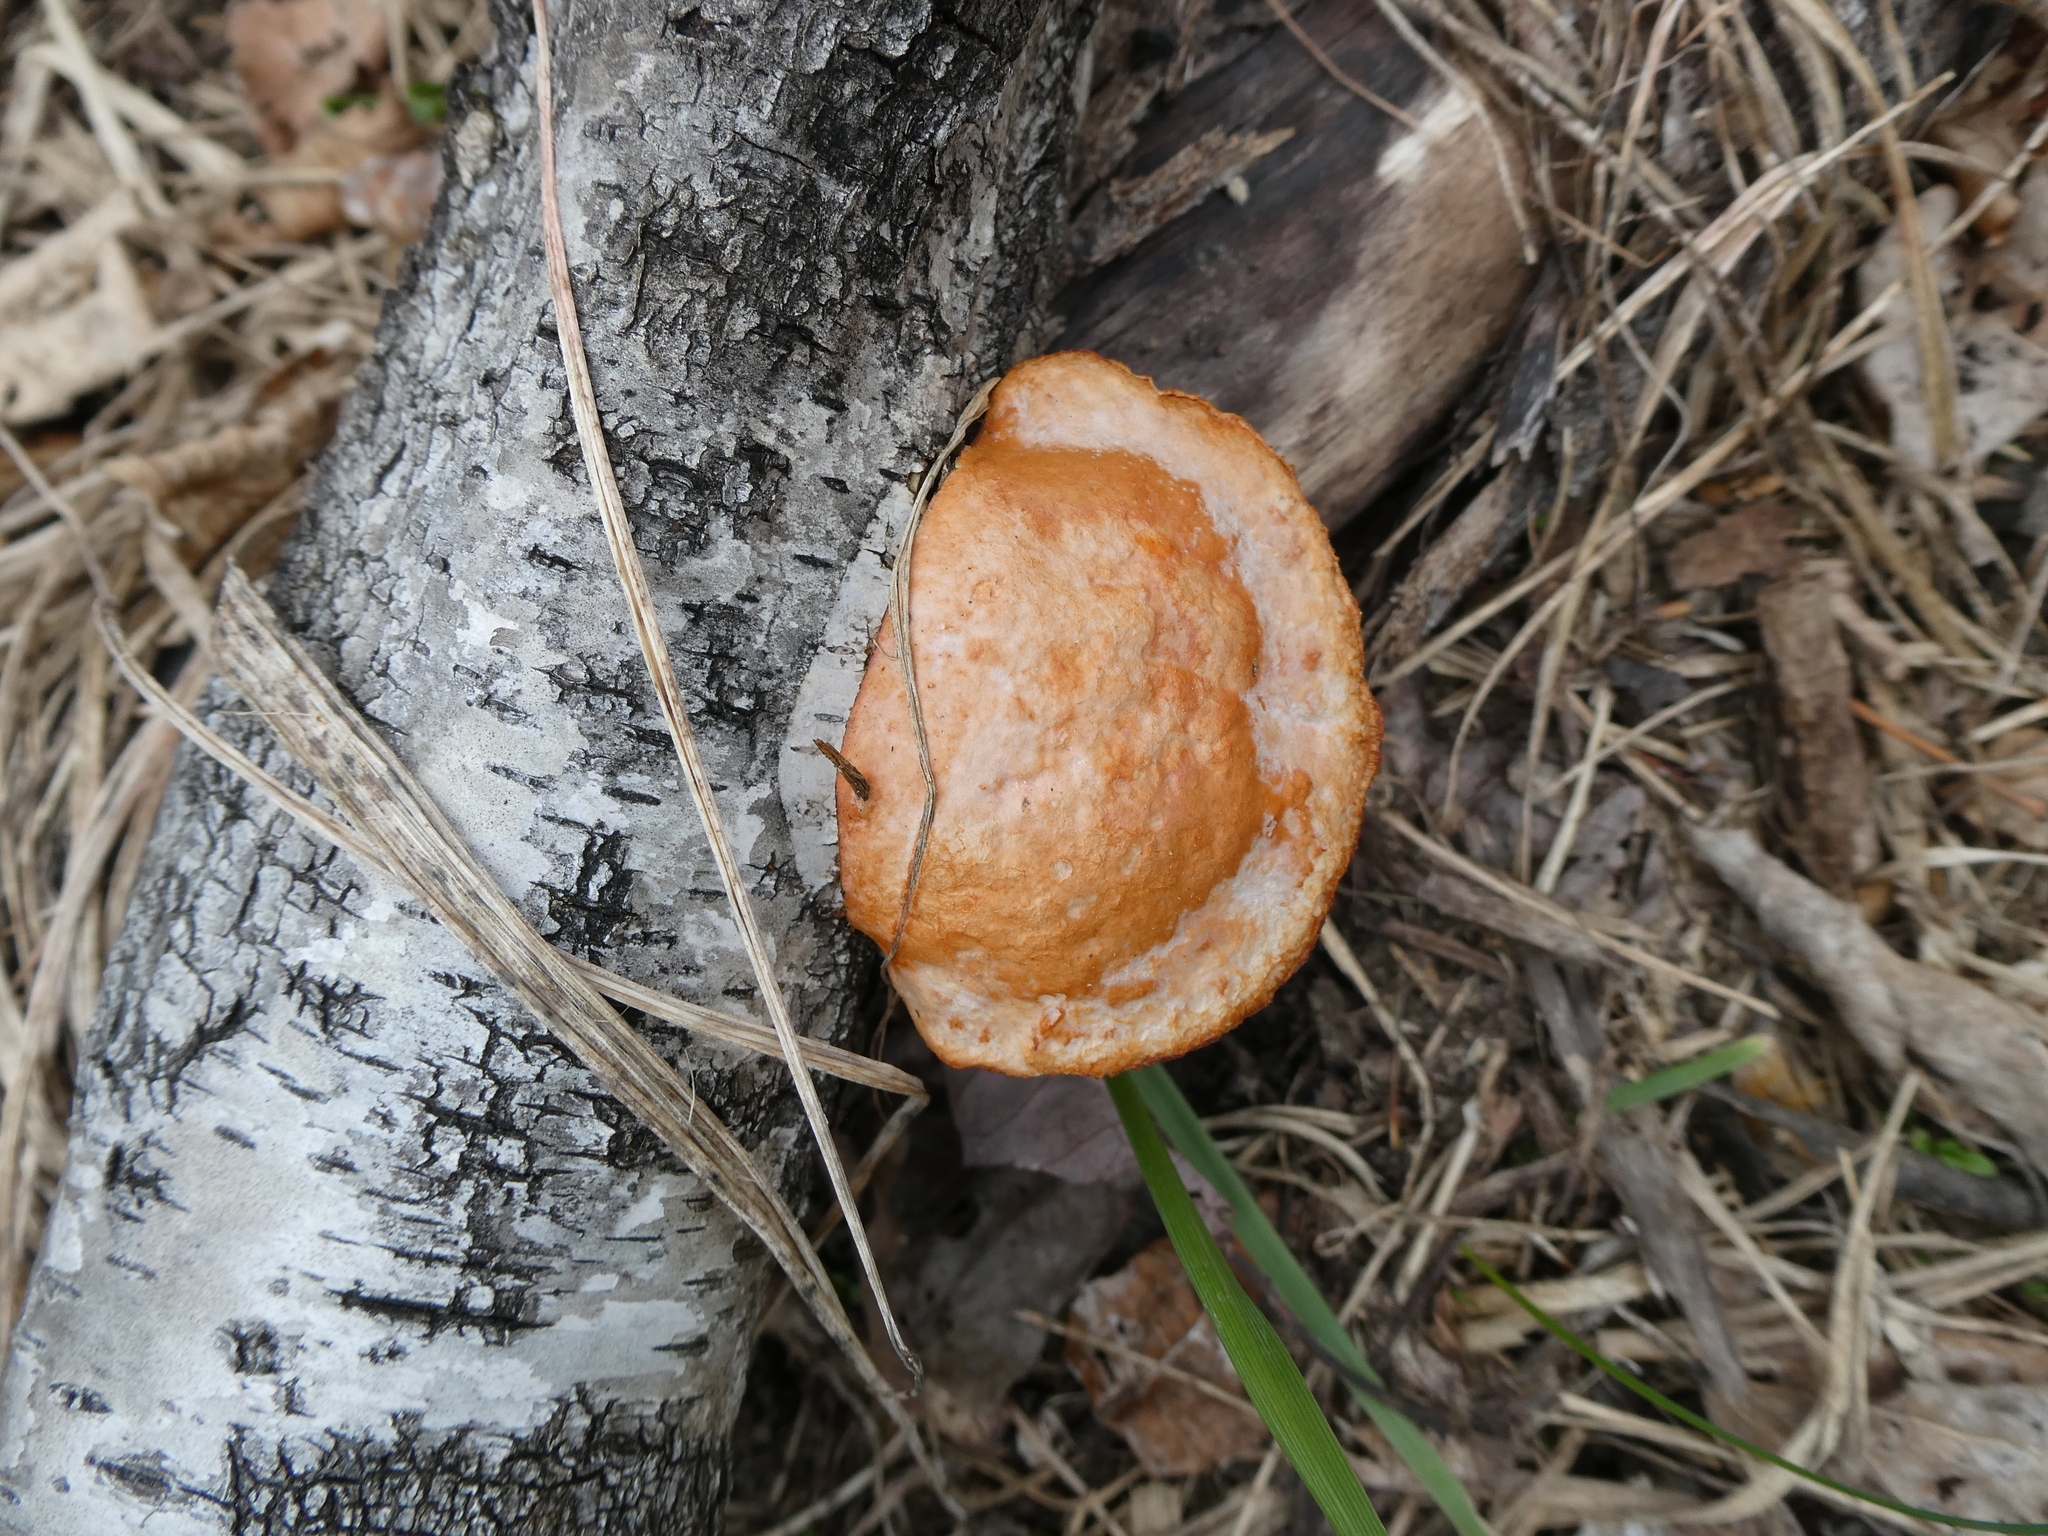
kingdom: Fungi
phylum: Basidiomycota
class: Agaricomycetes
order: Polyporales
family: Polyporaceae
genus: Trametes
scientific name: Trametes cinnabarina
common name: Northern cinnabar polypore
